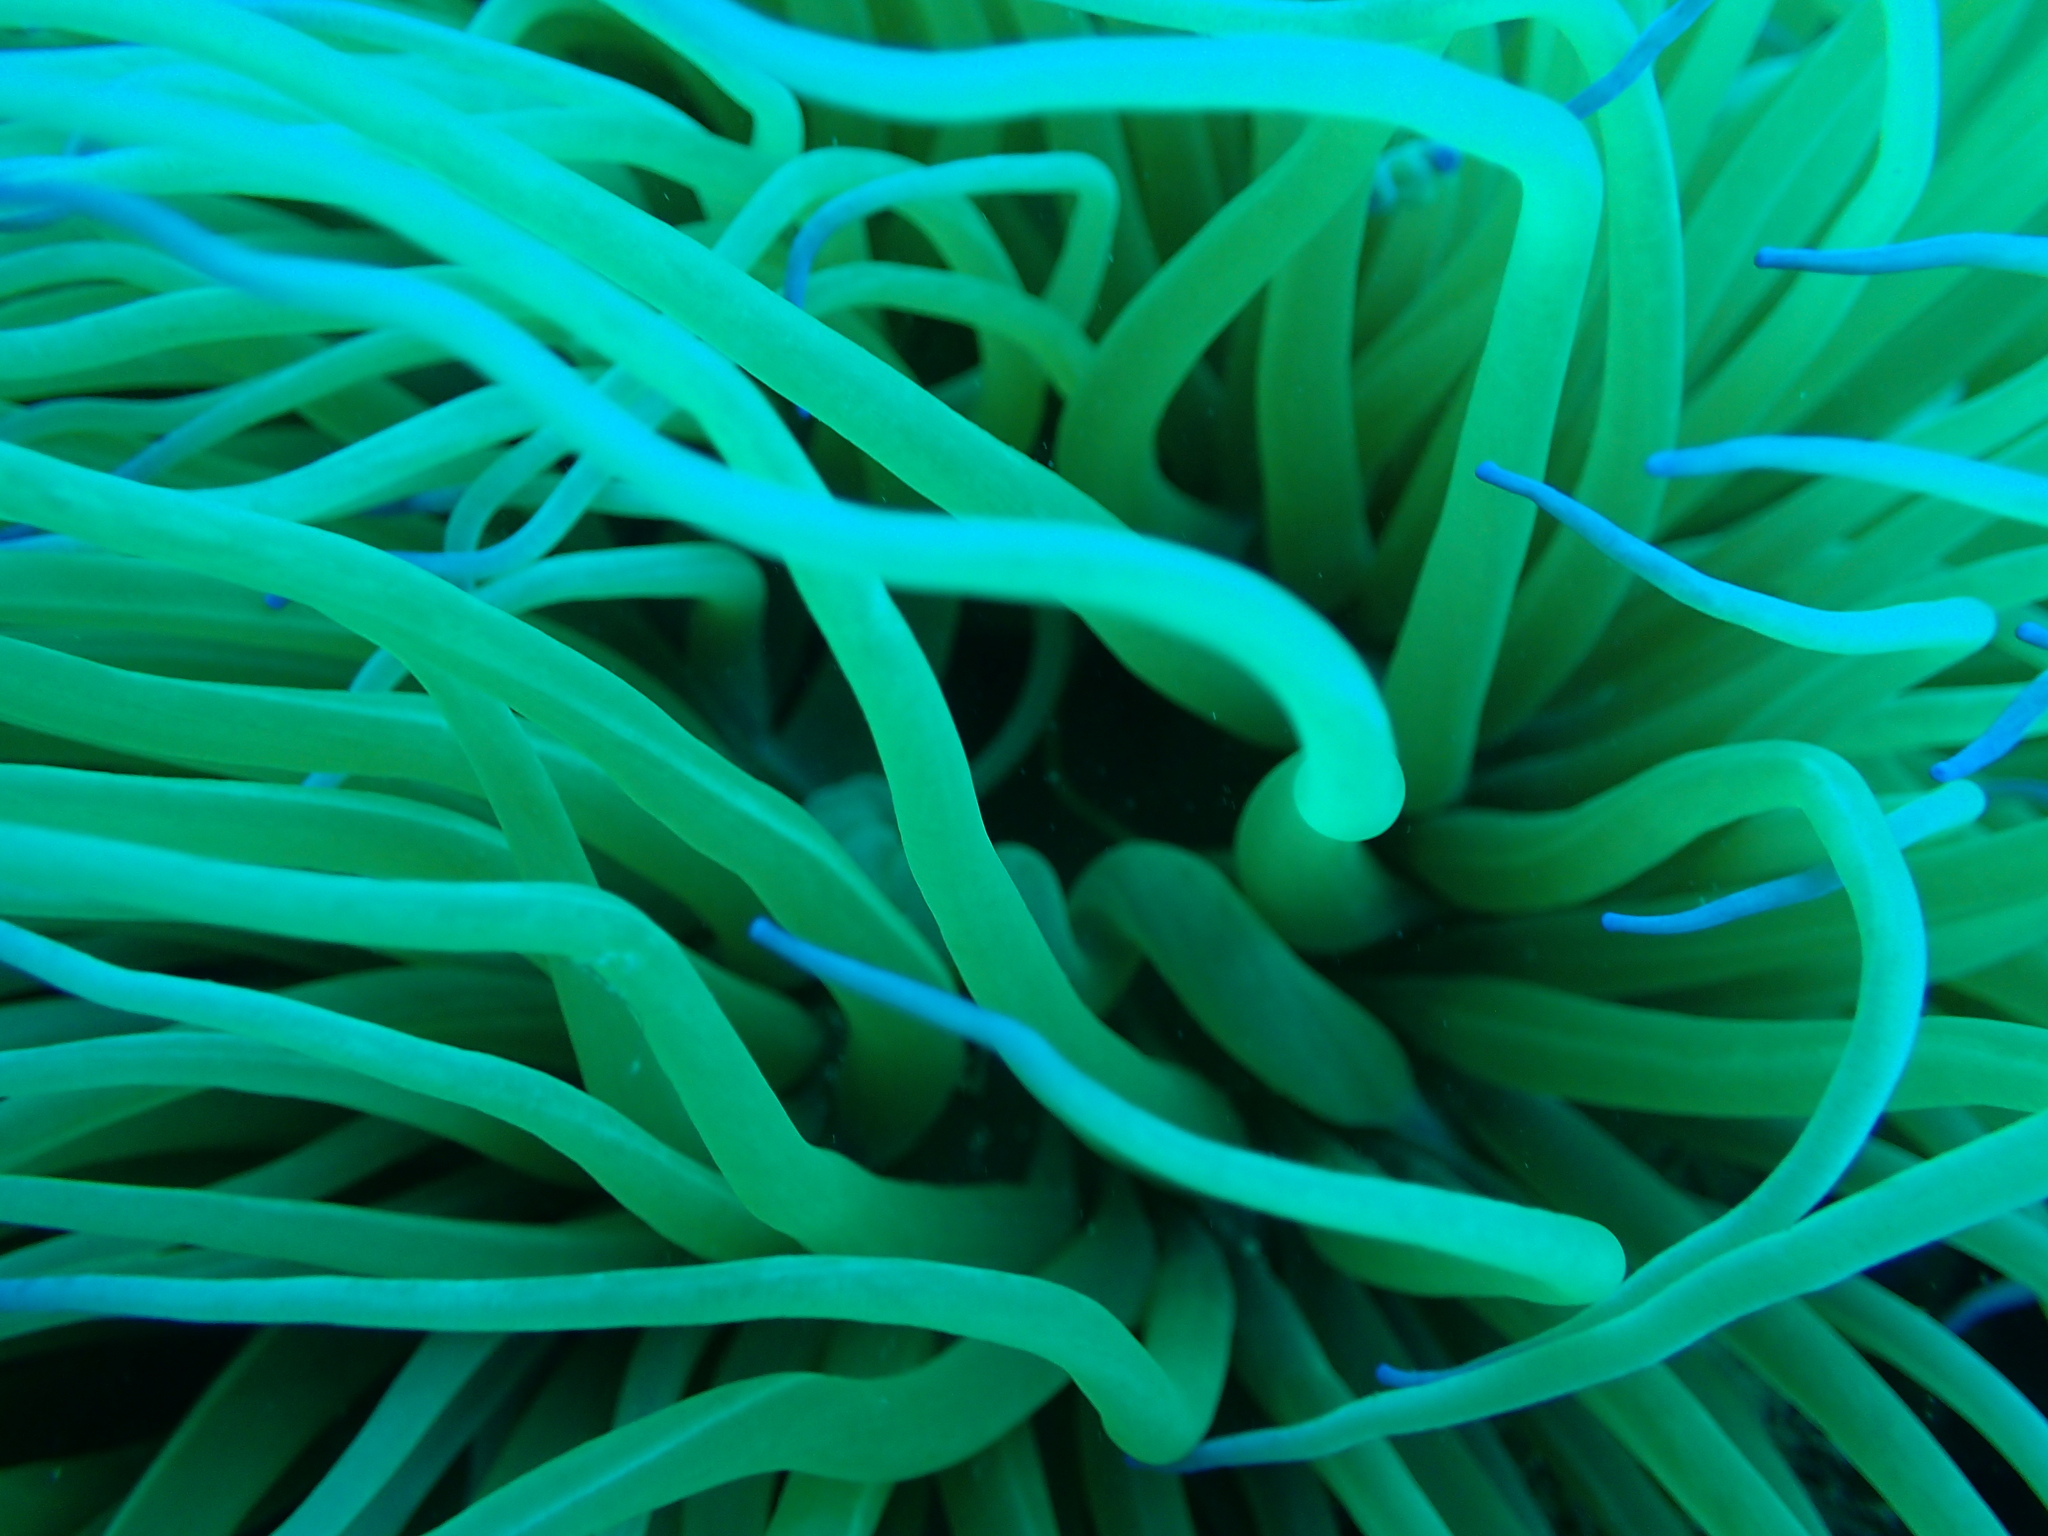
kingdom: Animalia
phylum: Cnidaria
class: Anthozoa
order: Actiniaria
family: Actiniidae
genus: Anemonia
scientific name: Anemonia viridis
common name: Snakelocks anemone
